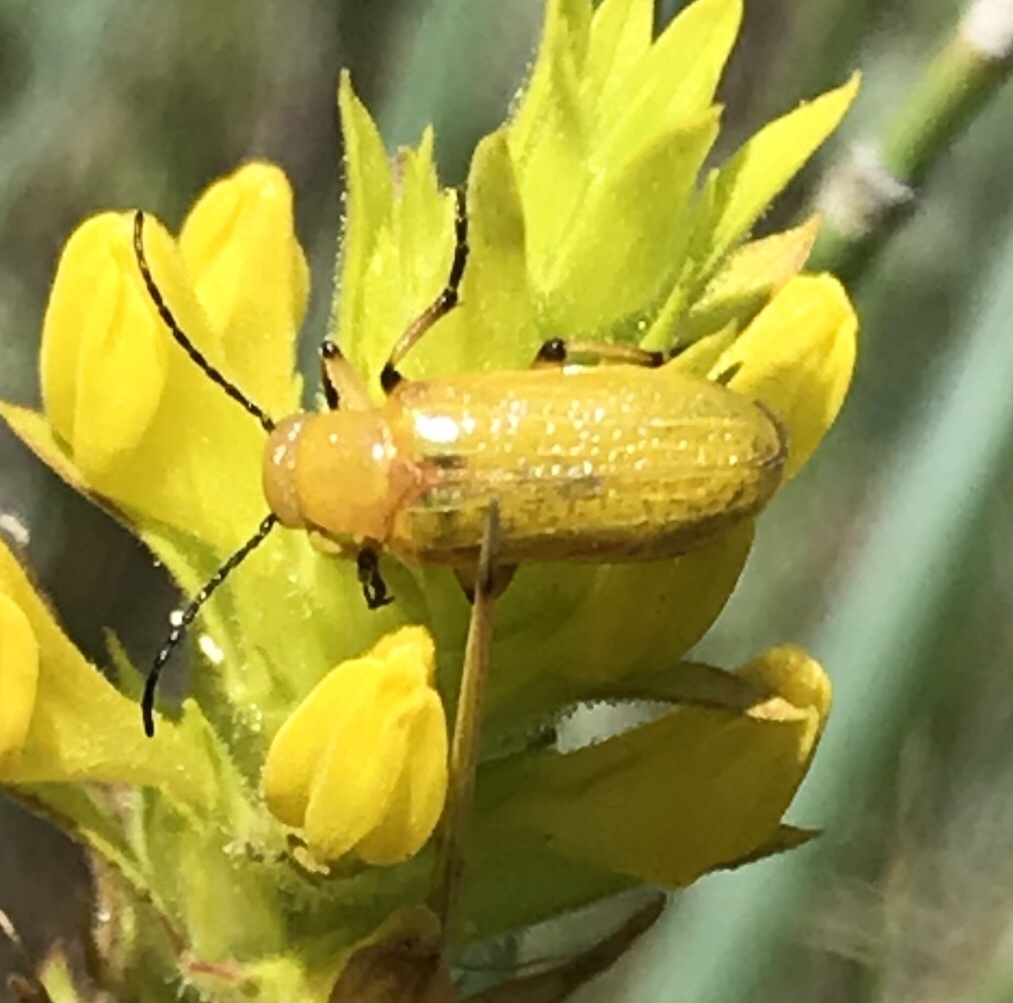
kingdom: Animalia
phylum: Arthropoda
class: Insecta
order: Coleoptera
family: Meloidae
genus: Zonitis
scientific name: Zonitis sayi
